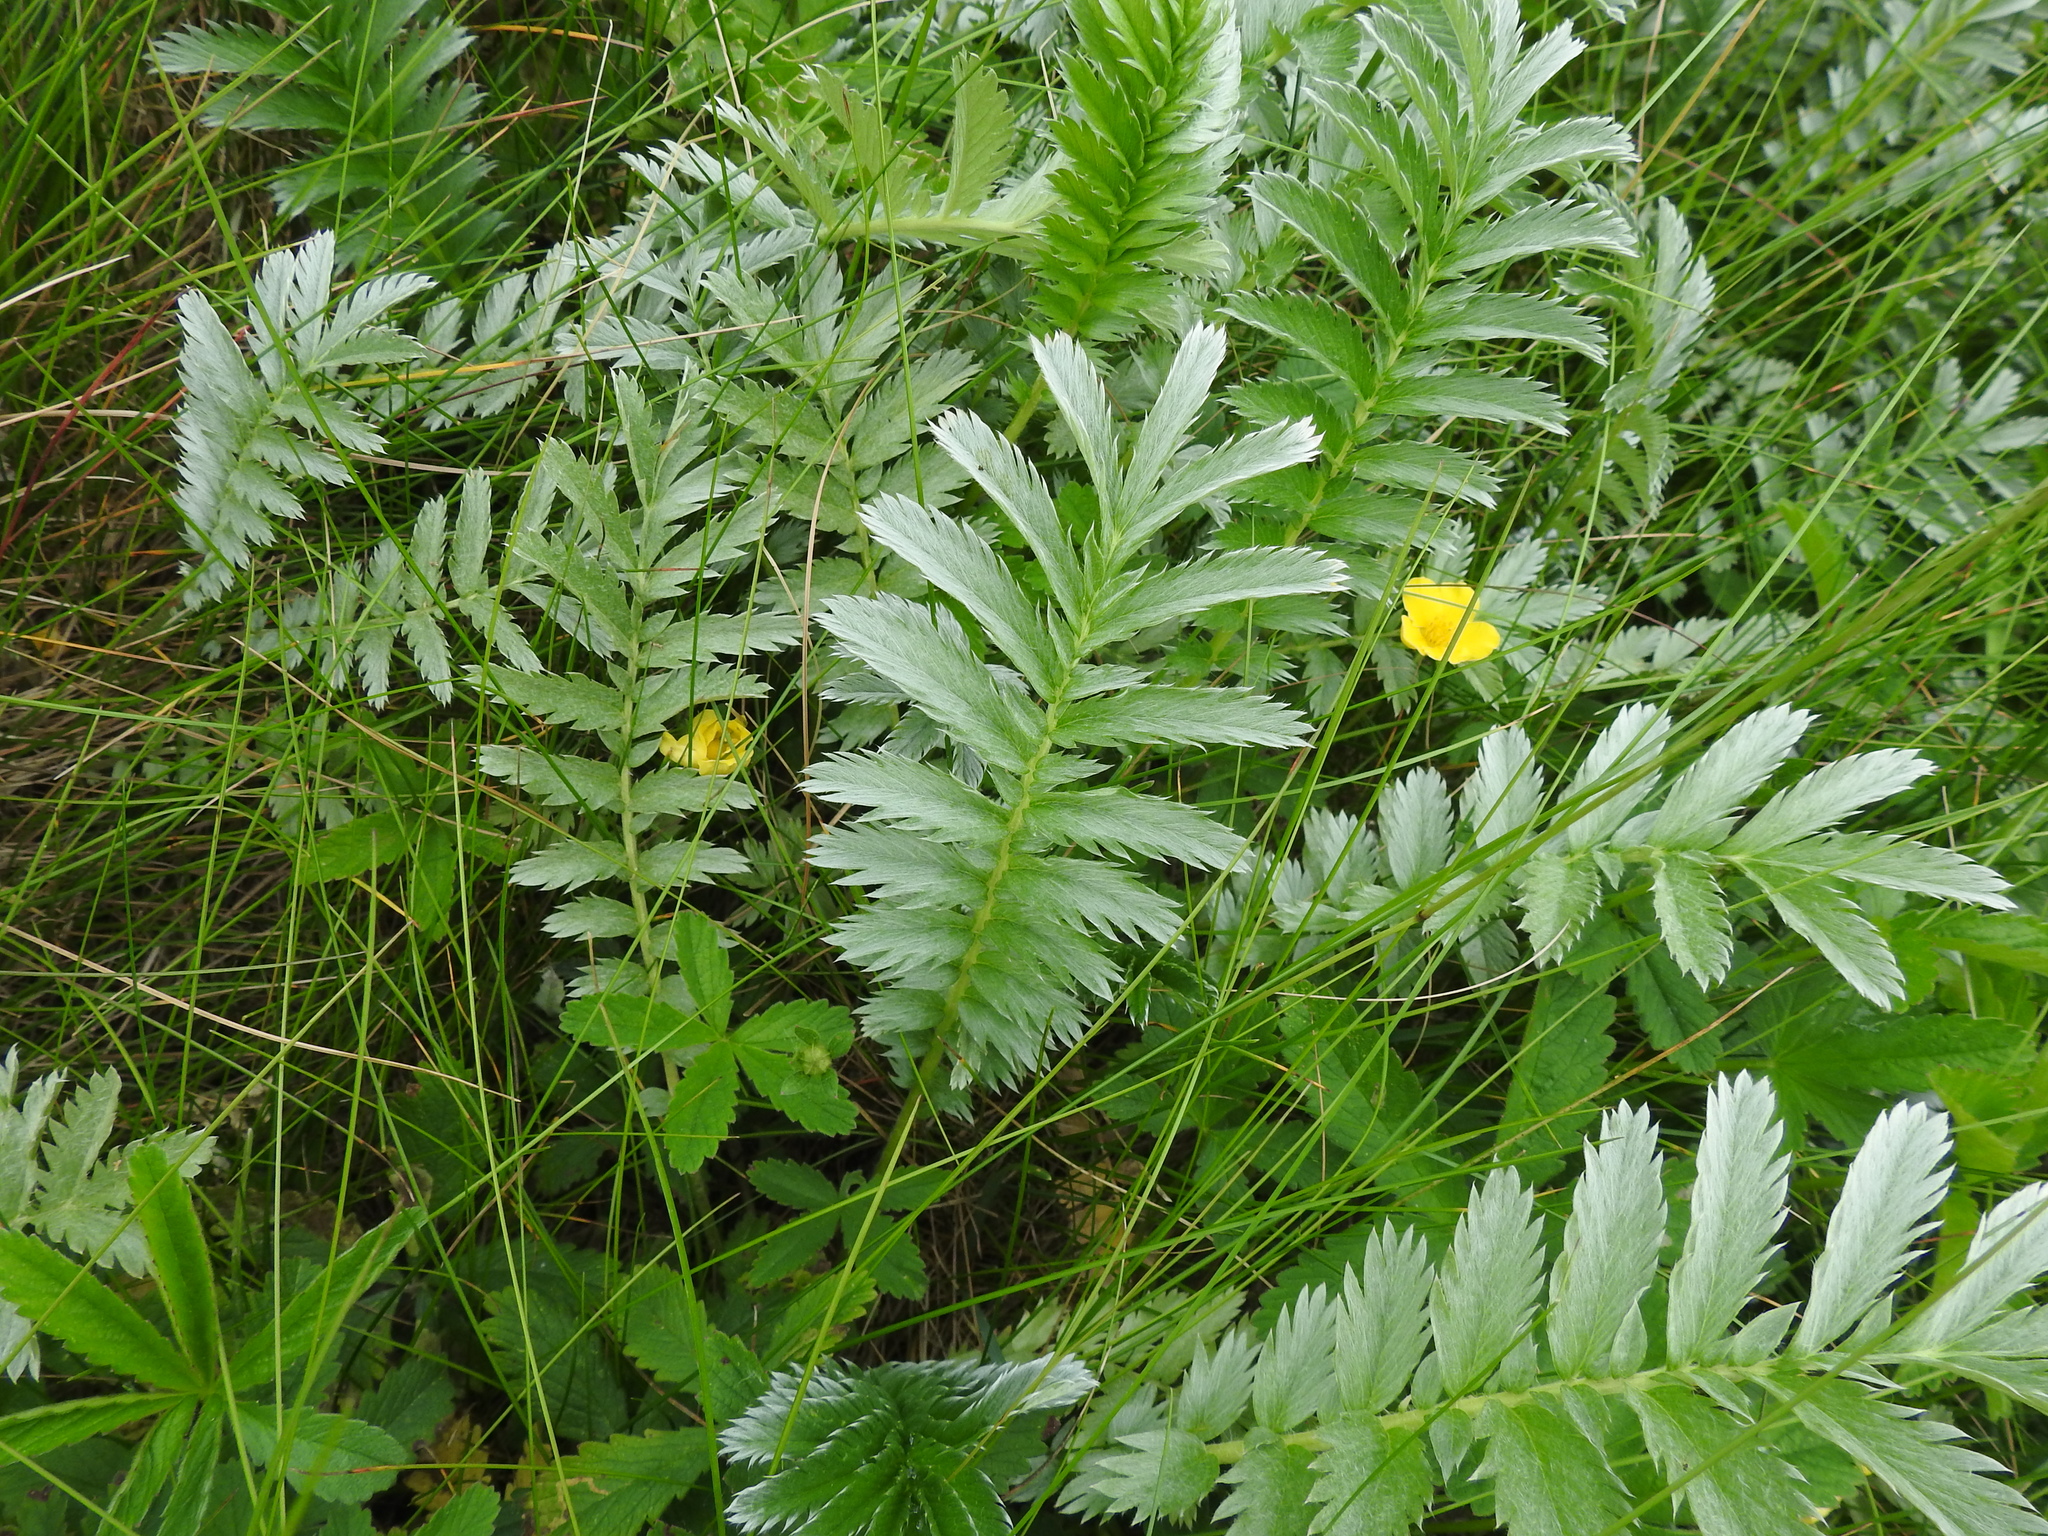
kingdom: Plantae
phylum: Tracheophyta
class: Magnoliopsida
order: Rosales
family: Rosaceae
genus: Argentina
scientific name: Argentina anserina
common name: Common silverweed
